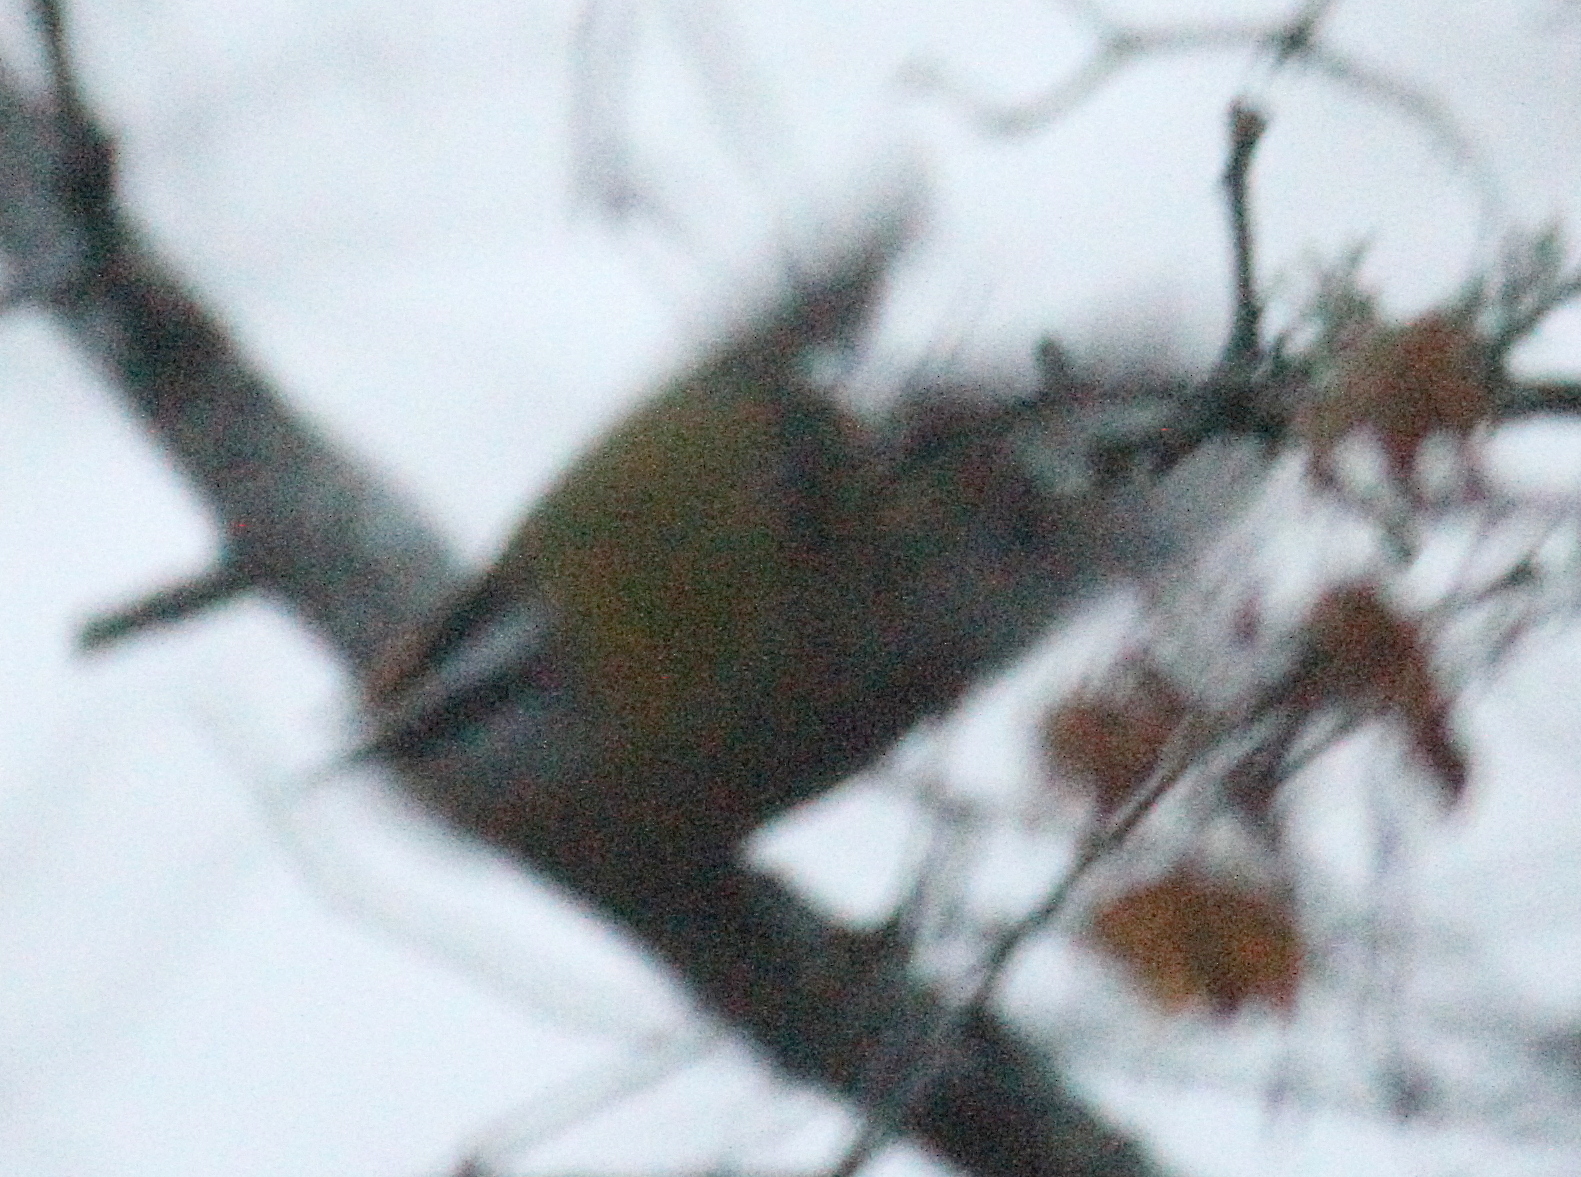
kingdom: Animalia
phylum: Chordata
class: Aves
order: Passeriformes
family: Regulidae
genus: Regulus
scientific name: Regulus ignicapilla
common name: Firecrest
